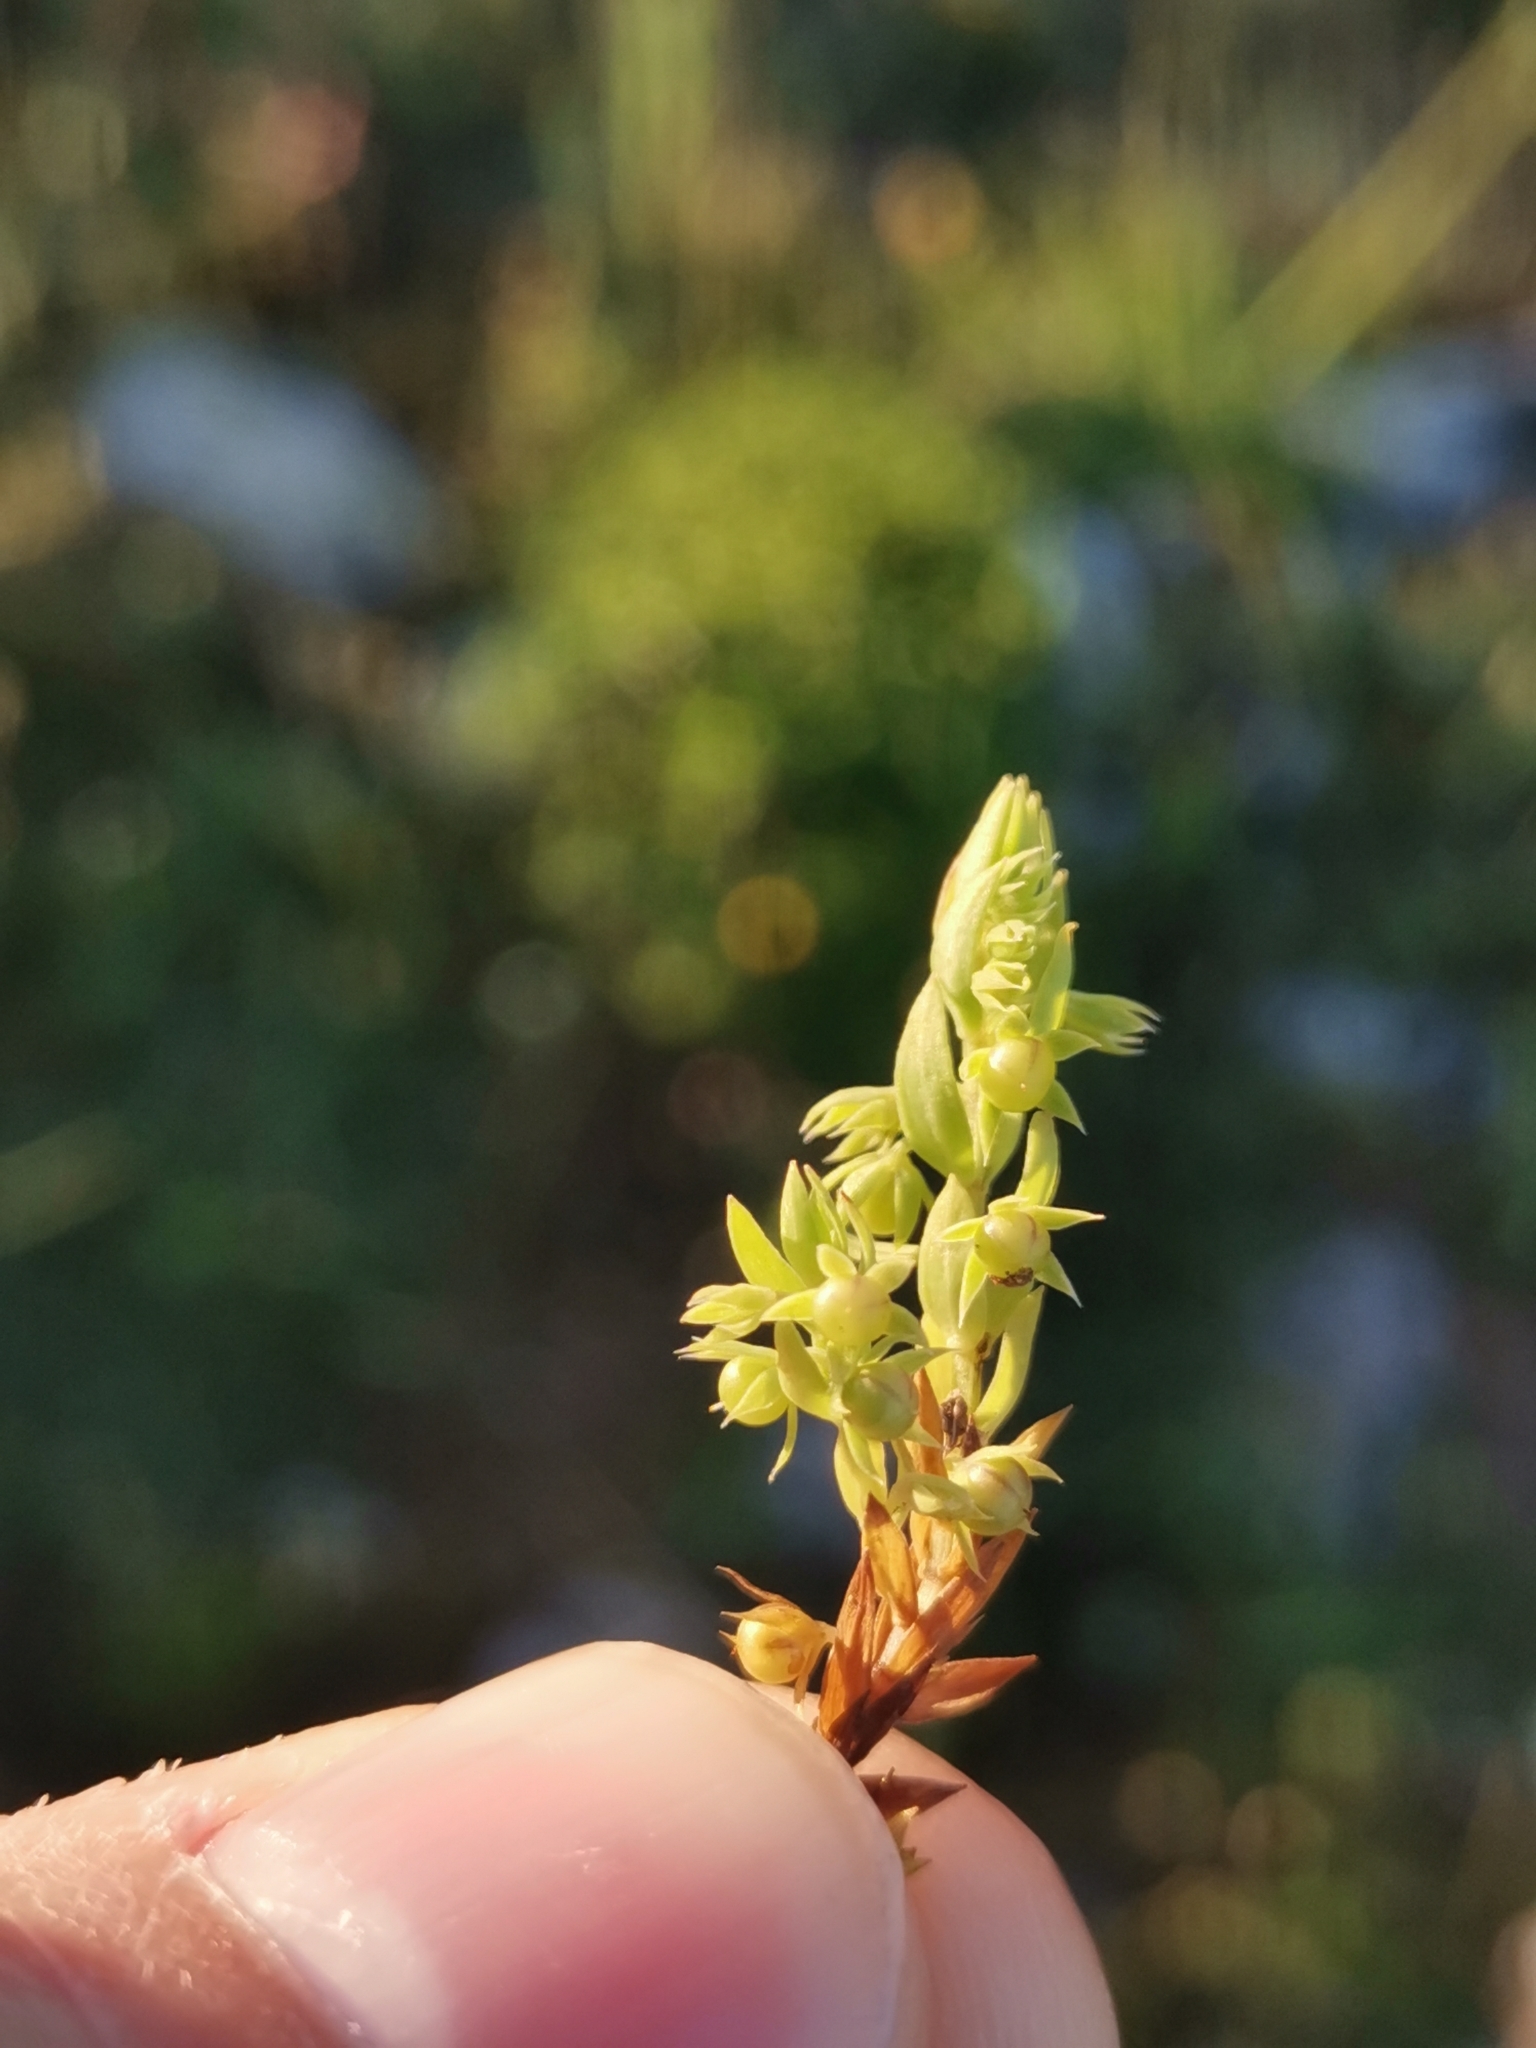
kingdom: Plantae
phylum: Tracheophyta
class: Magnoliopsida
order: Ericales
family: Primulaceae
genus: Lysimachia
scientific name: Lysimachia linum-stellatum
